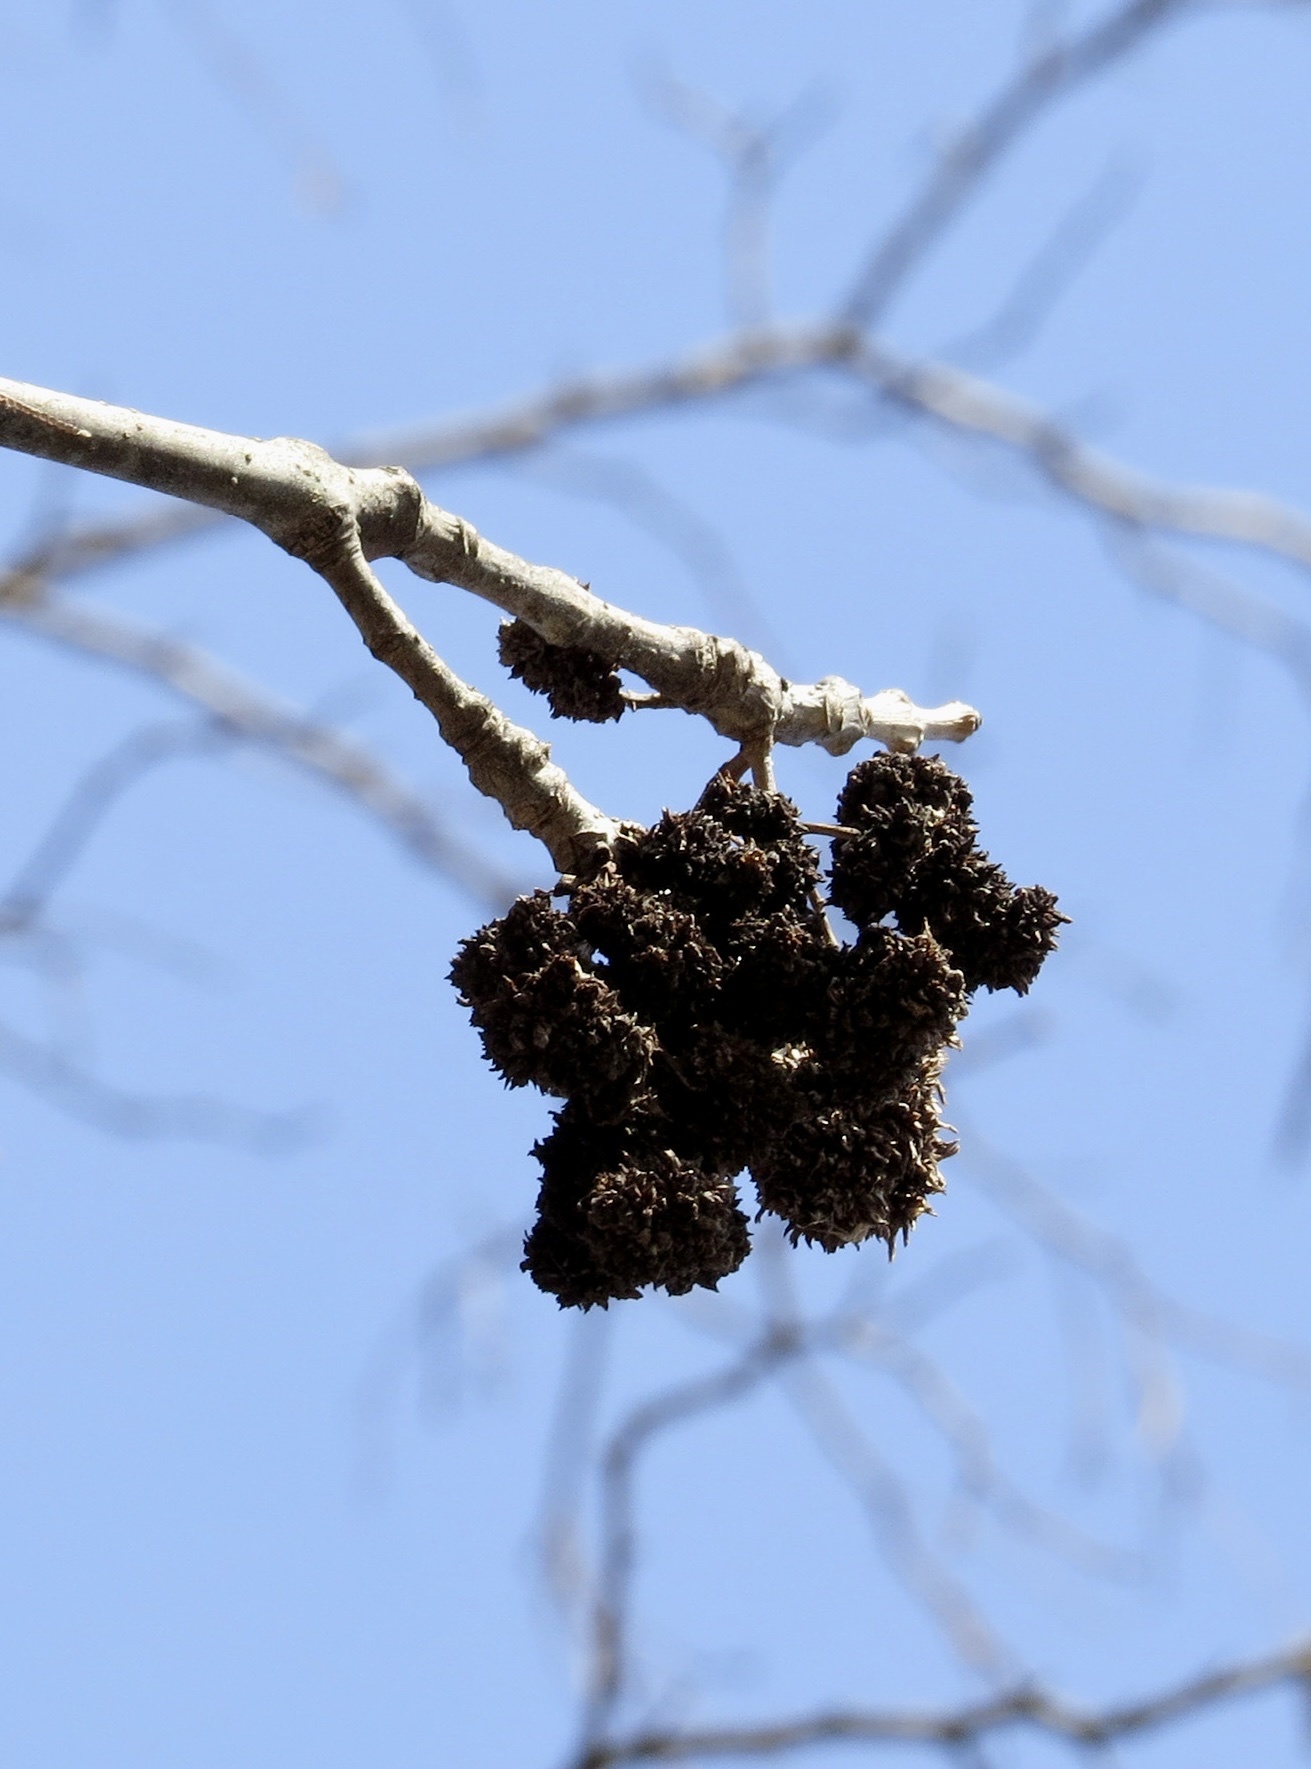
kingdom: Animalia
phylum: Arthropoda
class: Arachnida
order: Trombidiformes
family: Eriophyidae
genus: Aceria
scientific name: Aceria fraxiniflora
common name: Ash flower gall mite
